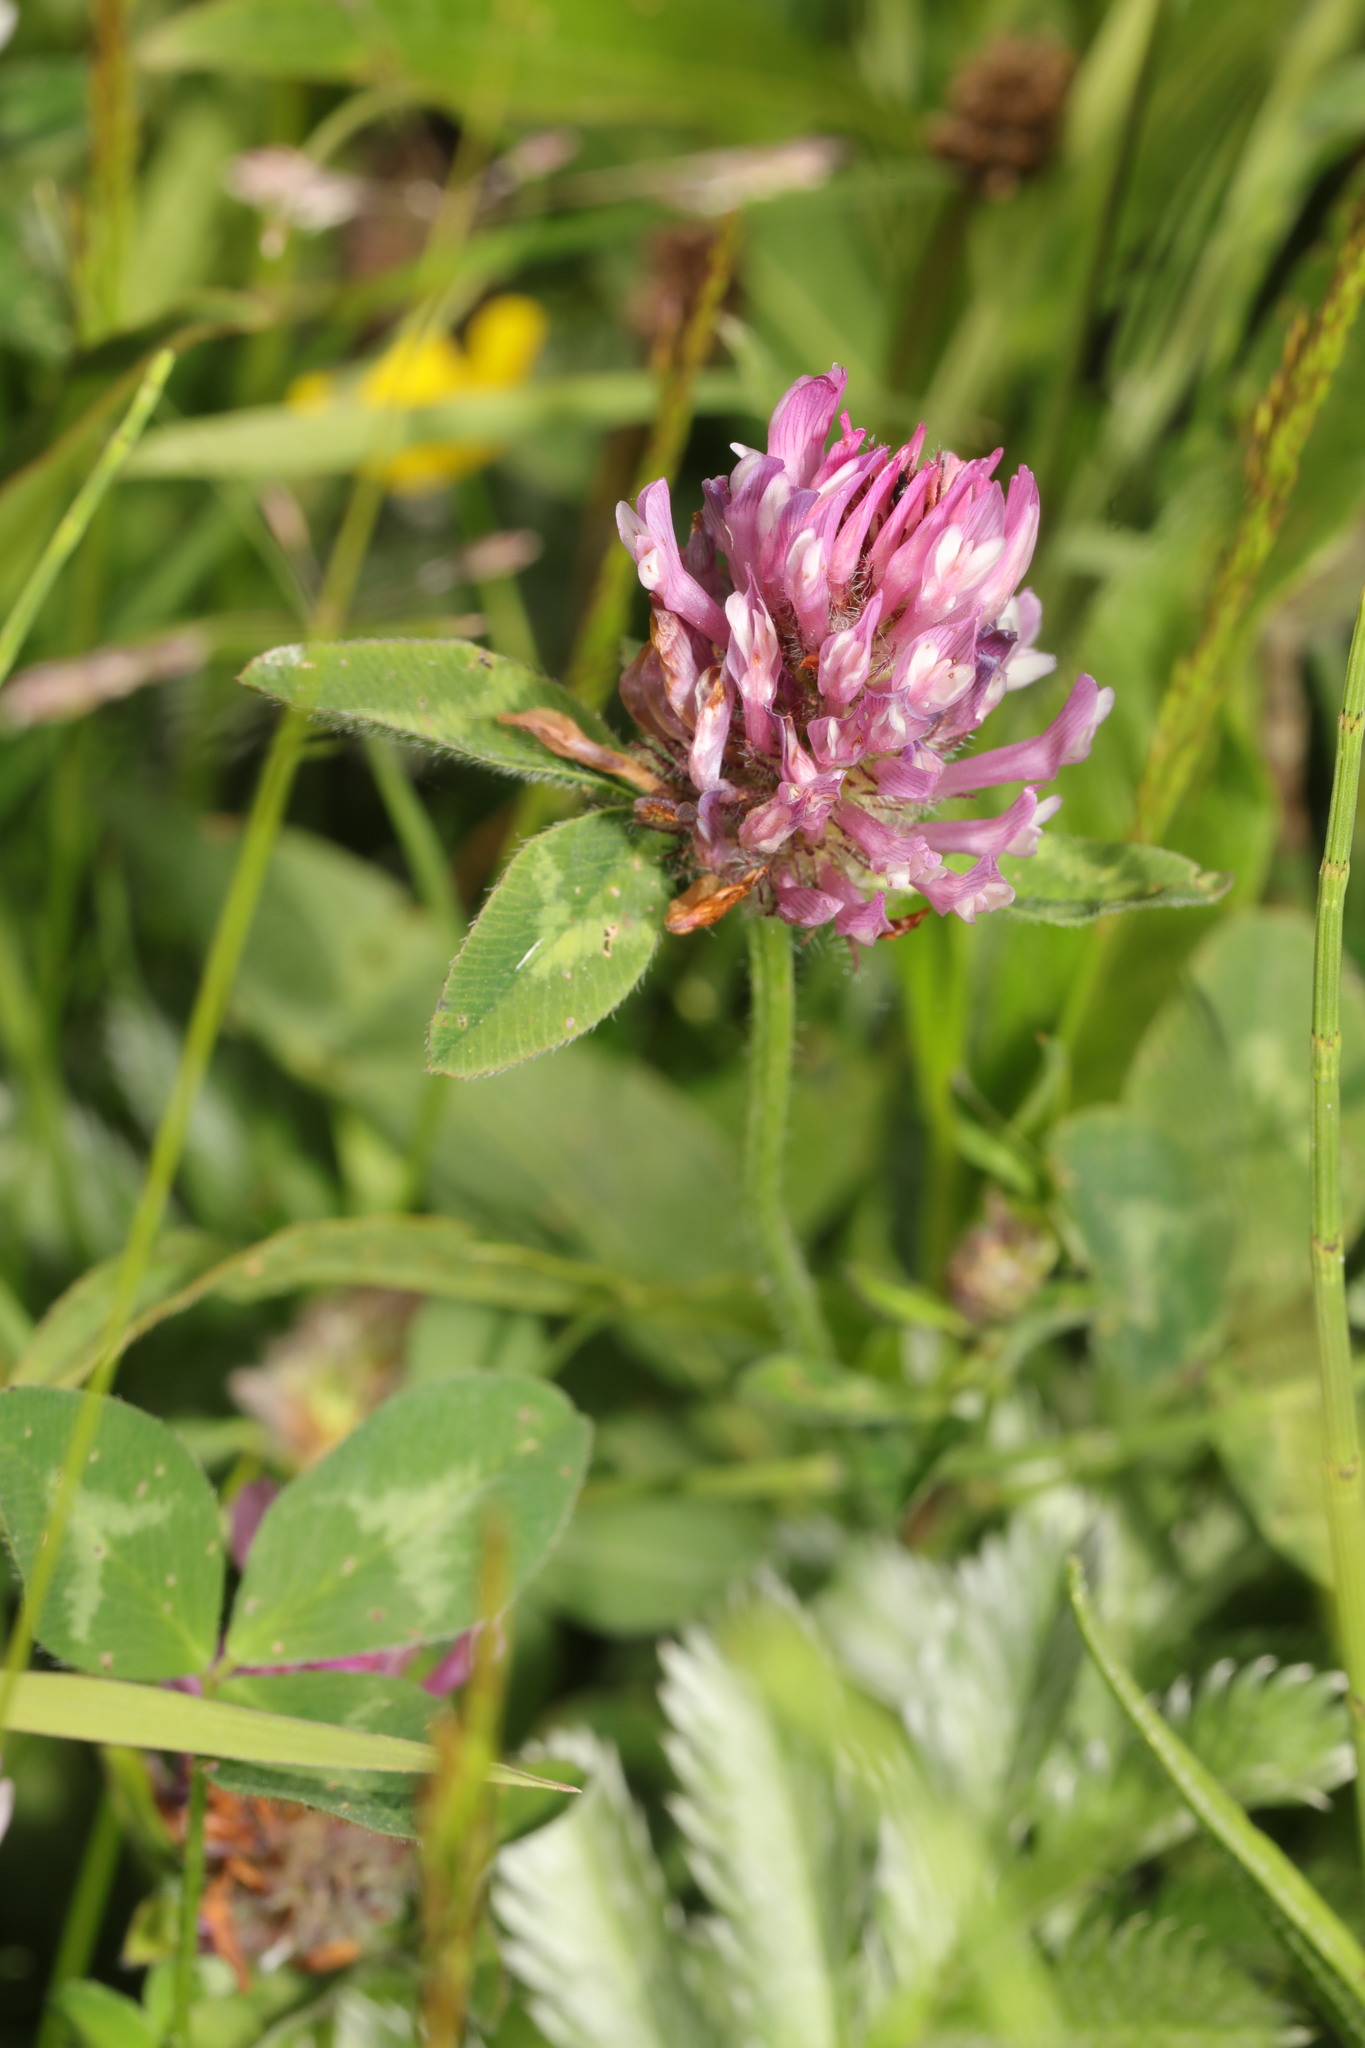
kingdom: Plantae
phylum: Tracheophyta
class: Magnoliopsida
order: Fabales
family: Fabaceae
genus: Trifolium
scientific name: Trifolium pratense
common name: Red clover
